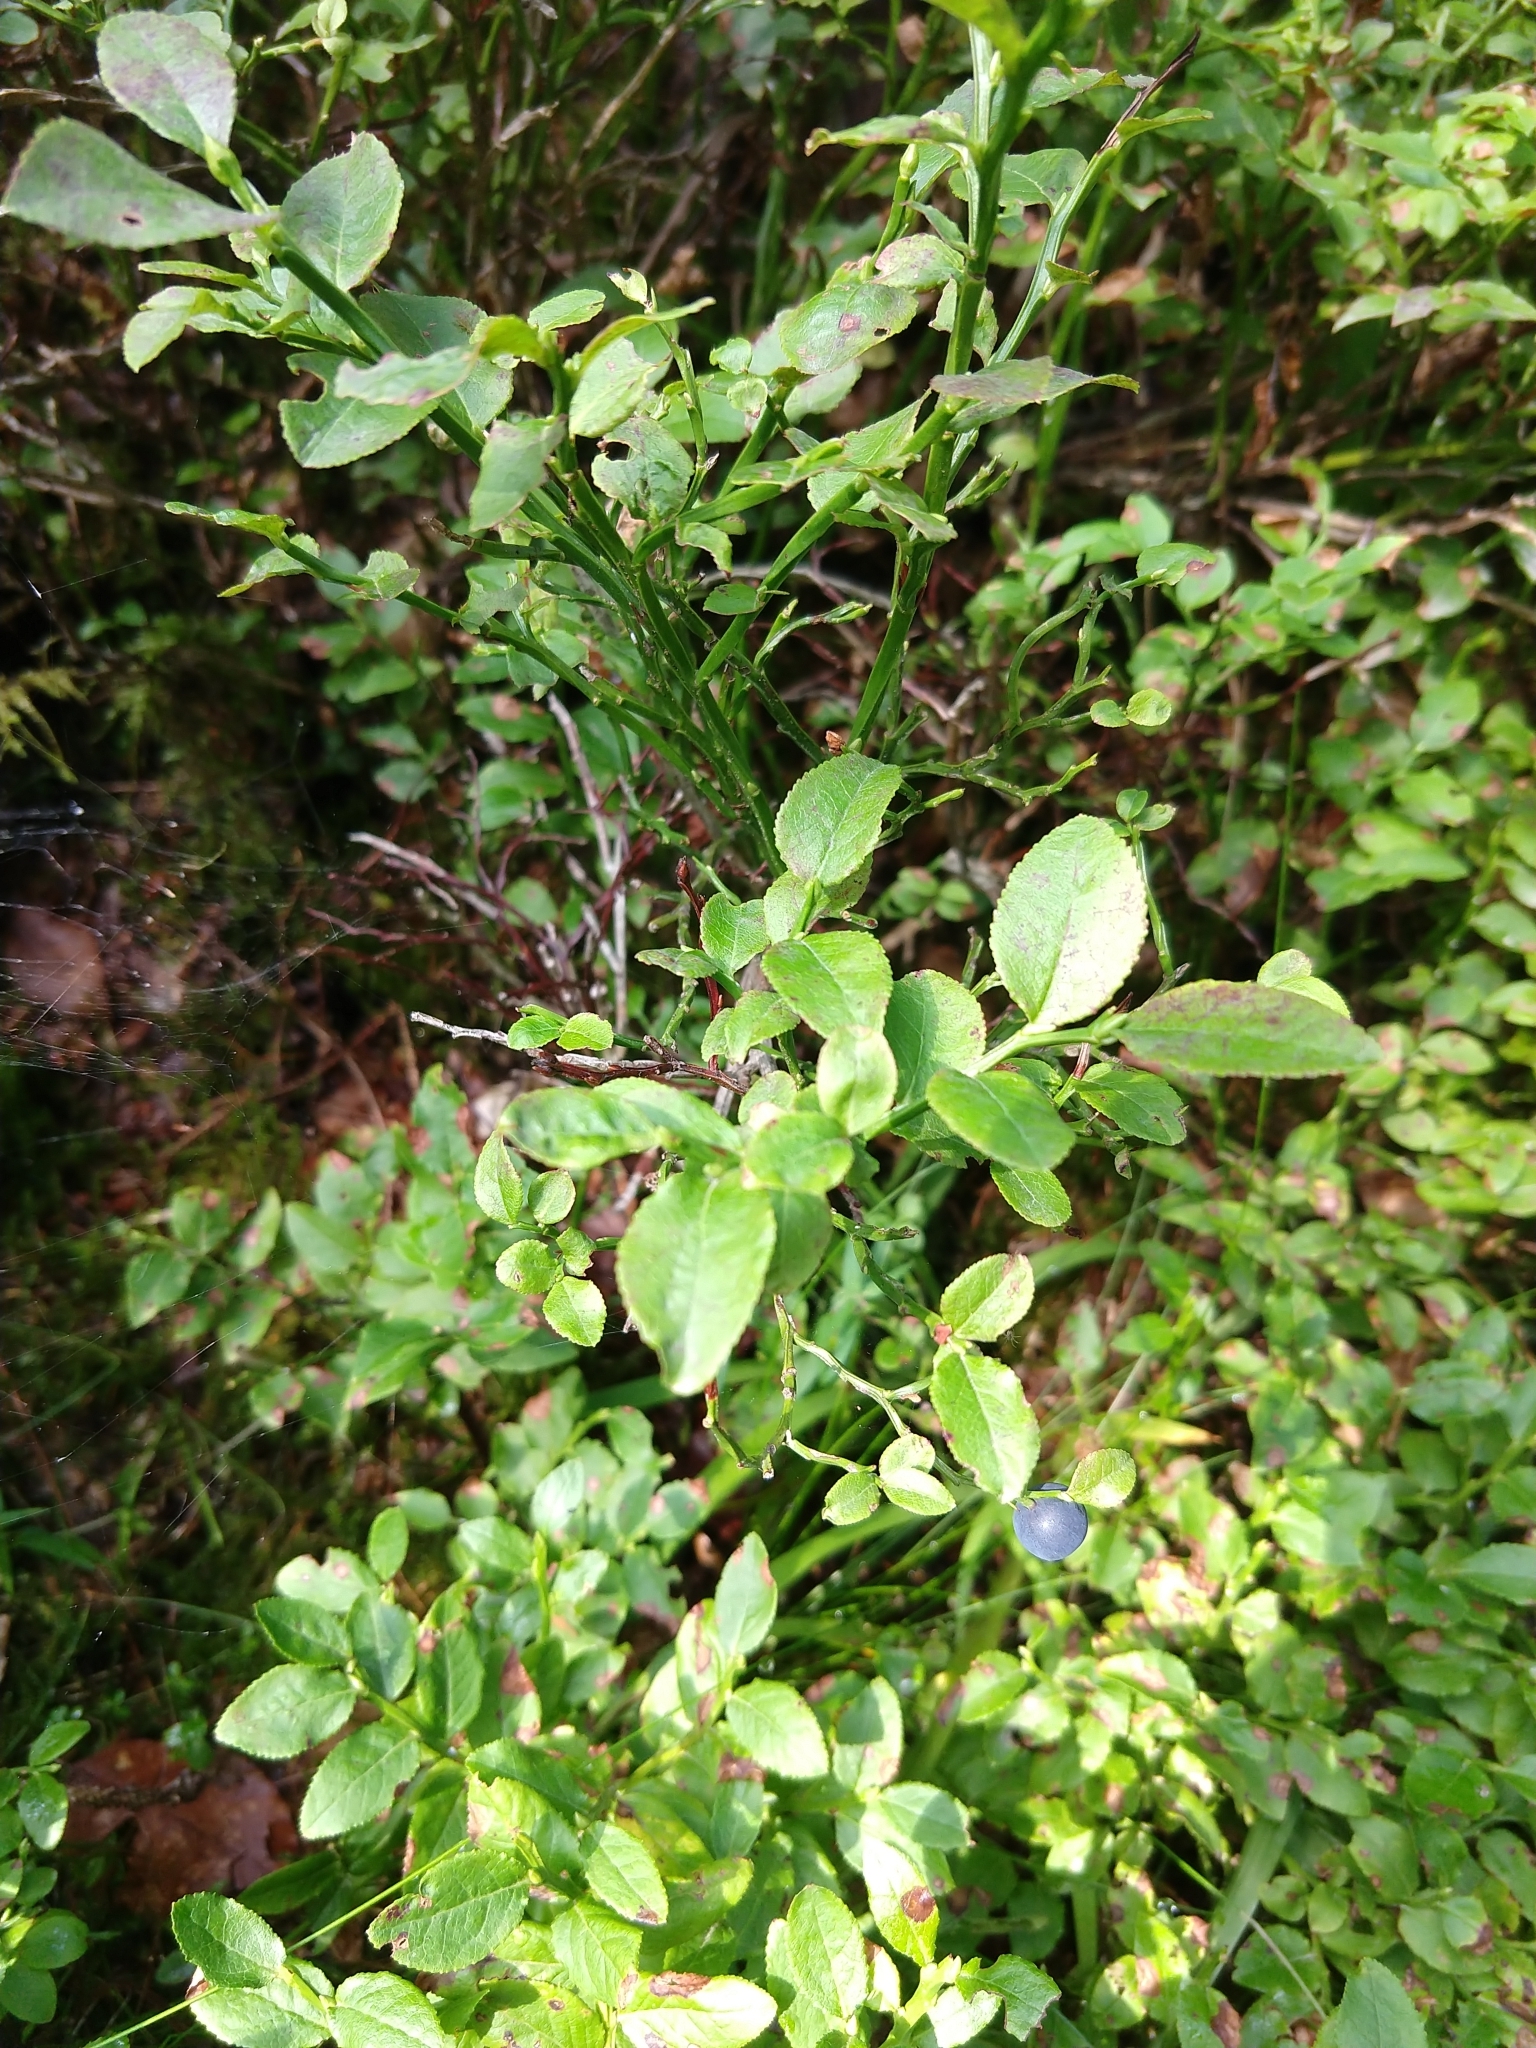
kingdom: Plantae
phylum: Tracheophyta
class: Magnoliopsida
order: Ericales
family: Ericaceae
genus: Vaccinium
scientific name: Vaccinium myrtillus
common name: Bilberry
